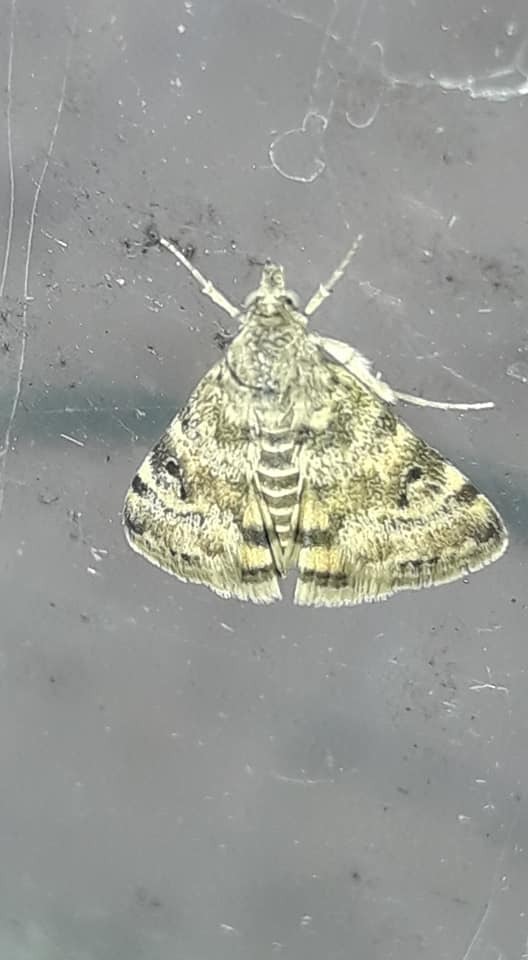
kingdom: Animalia
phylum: Arthropoda
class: Insecta
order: Lepidoptera
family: Crambidae
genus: Noctuelia
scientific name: Noctuelia Aporodes floralis
